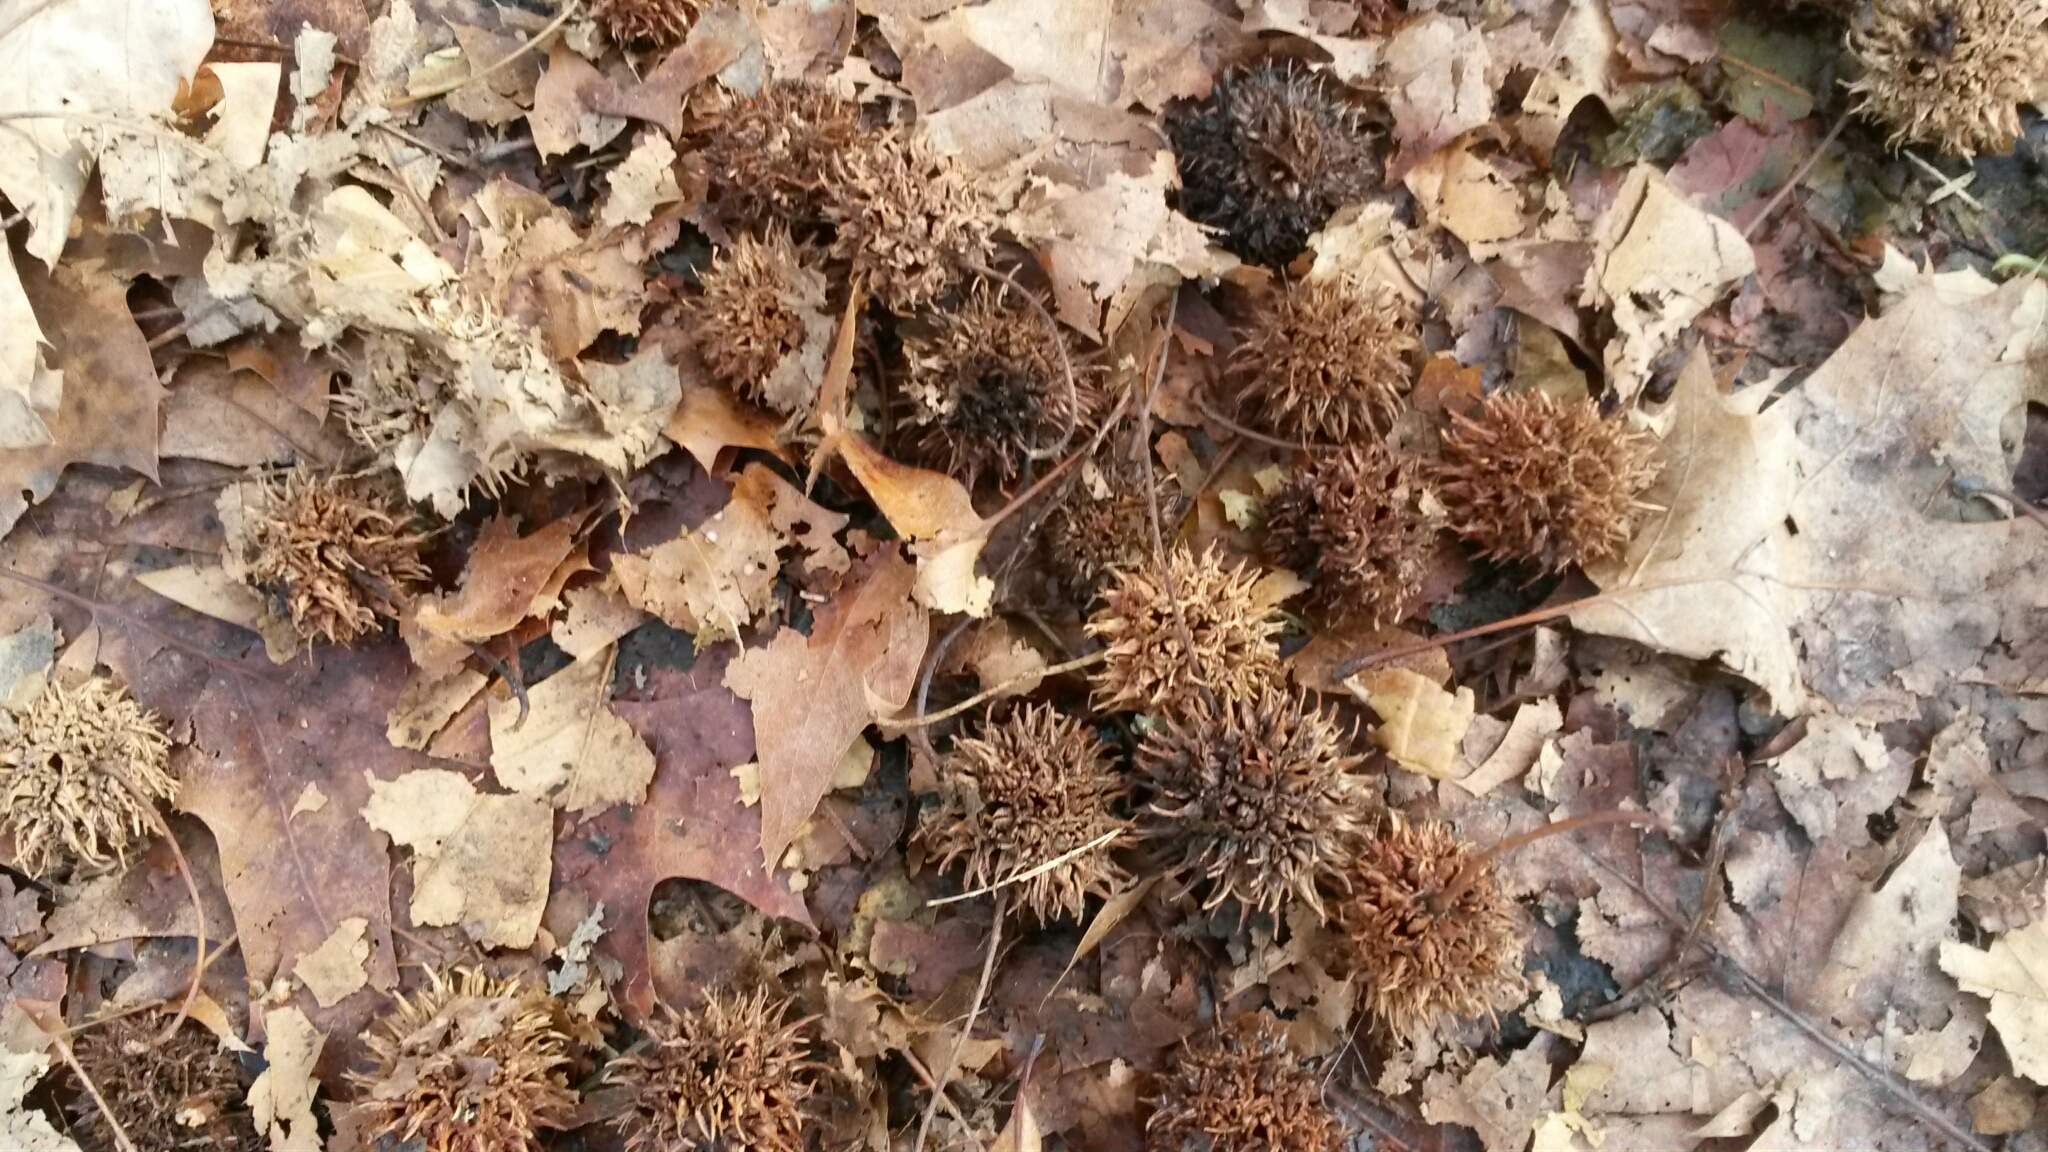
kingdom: Plantae
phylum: Tracheophyta
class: Magnoliopsida
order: Saxifragales
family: Altingiaceae
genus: Liquidambar
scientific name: Liquidambar styraciflua
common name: Sweet gum
